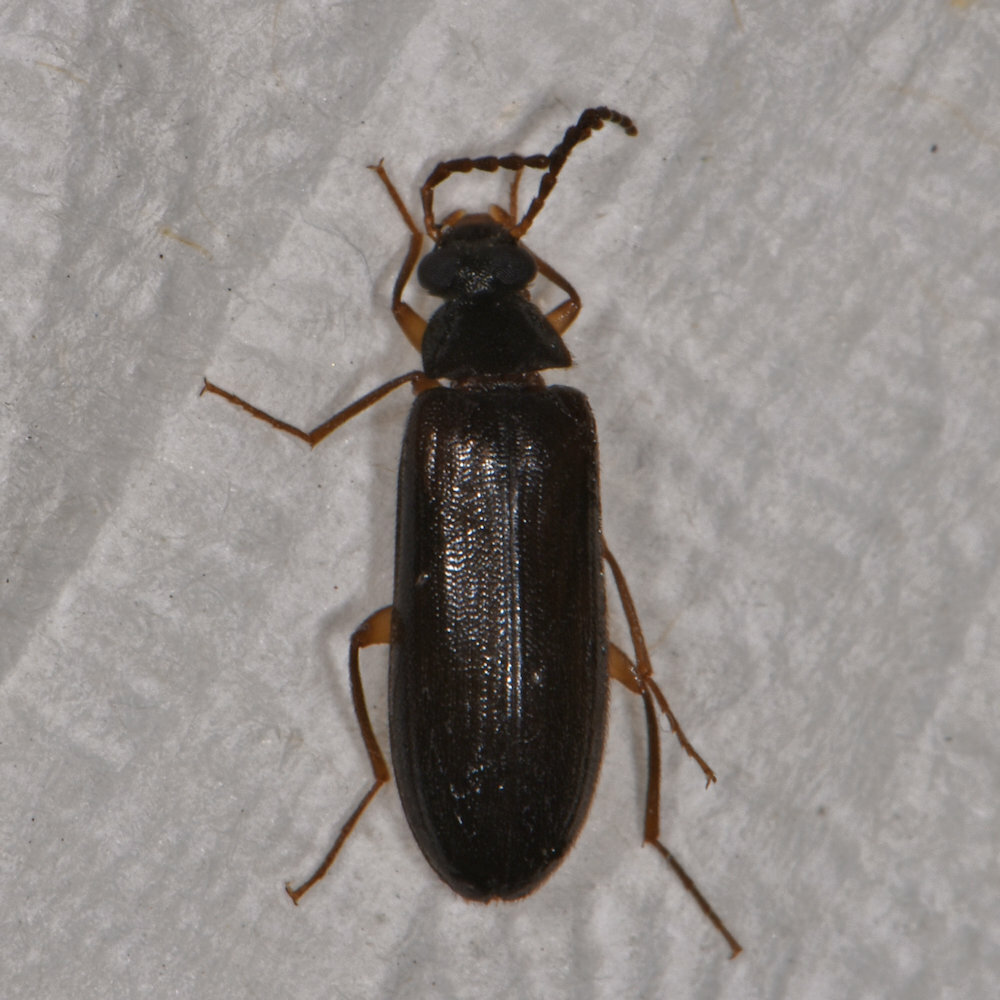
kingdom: Animalia
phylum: Arthropoda
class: Insecta
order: Coleoptera
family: Tenebrionidae
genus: Mycetochara
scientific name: Mycetochara bicolor
